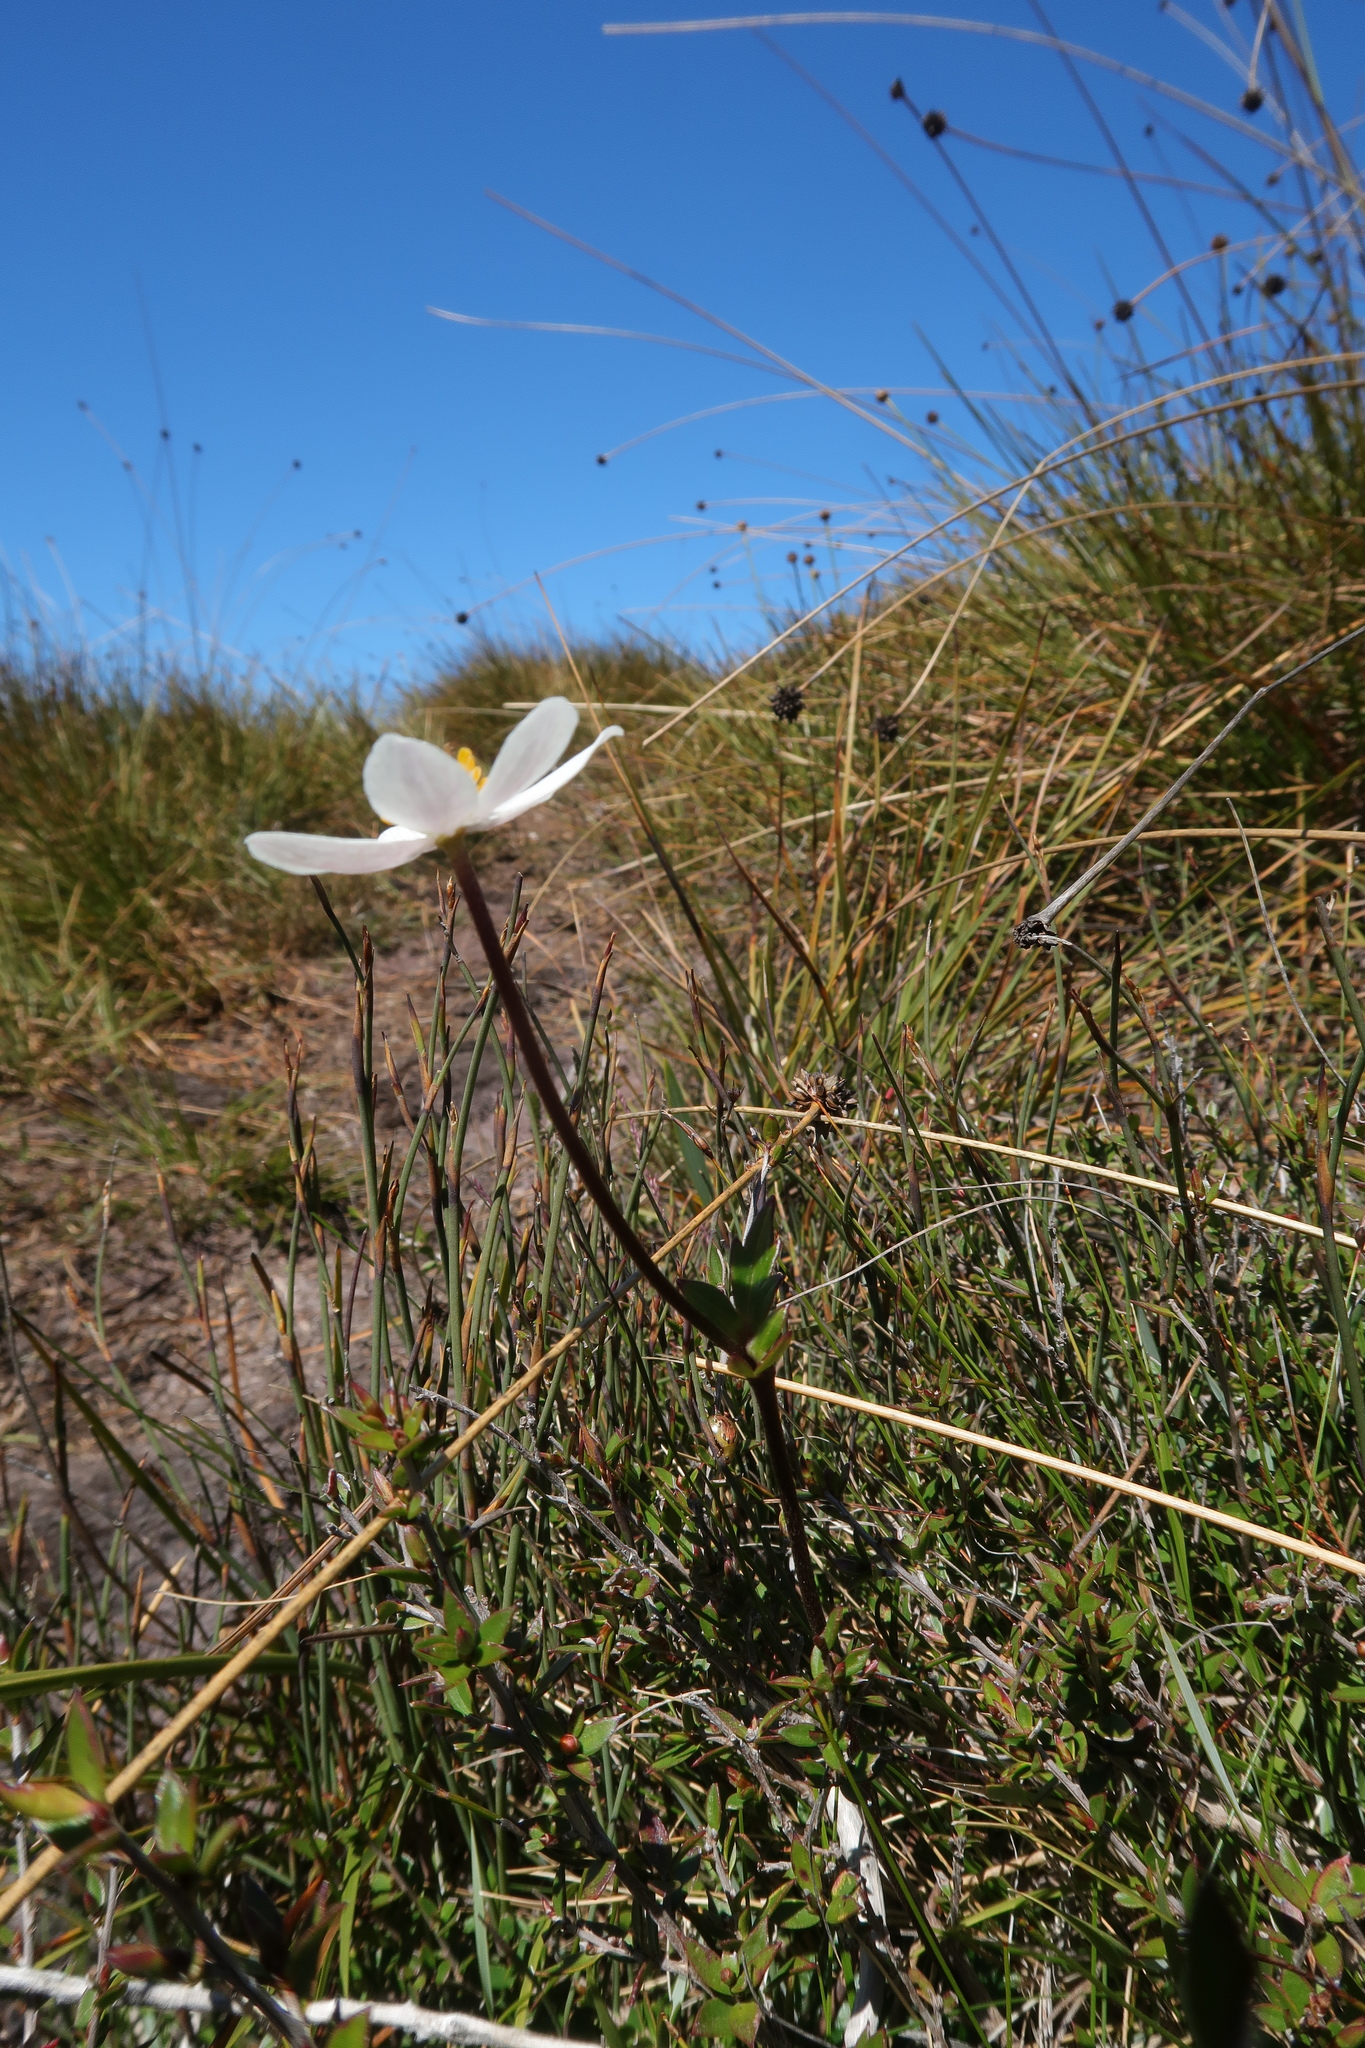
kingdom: Plantae
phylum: Tracheophyta
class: Magnoliopsida
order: Ranunculales
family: Ranunculaceae
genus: Knowltonia
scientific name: Knowltonia crassifolia
